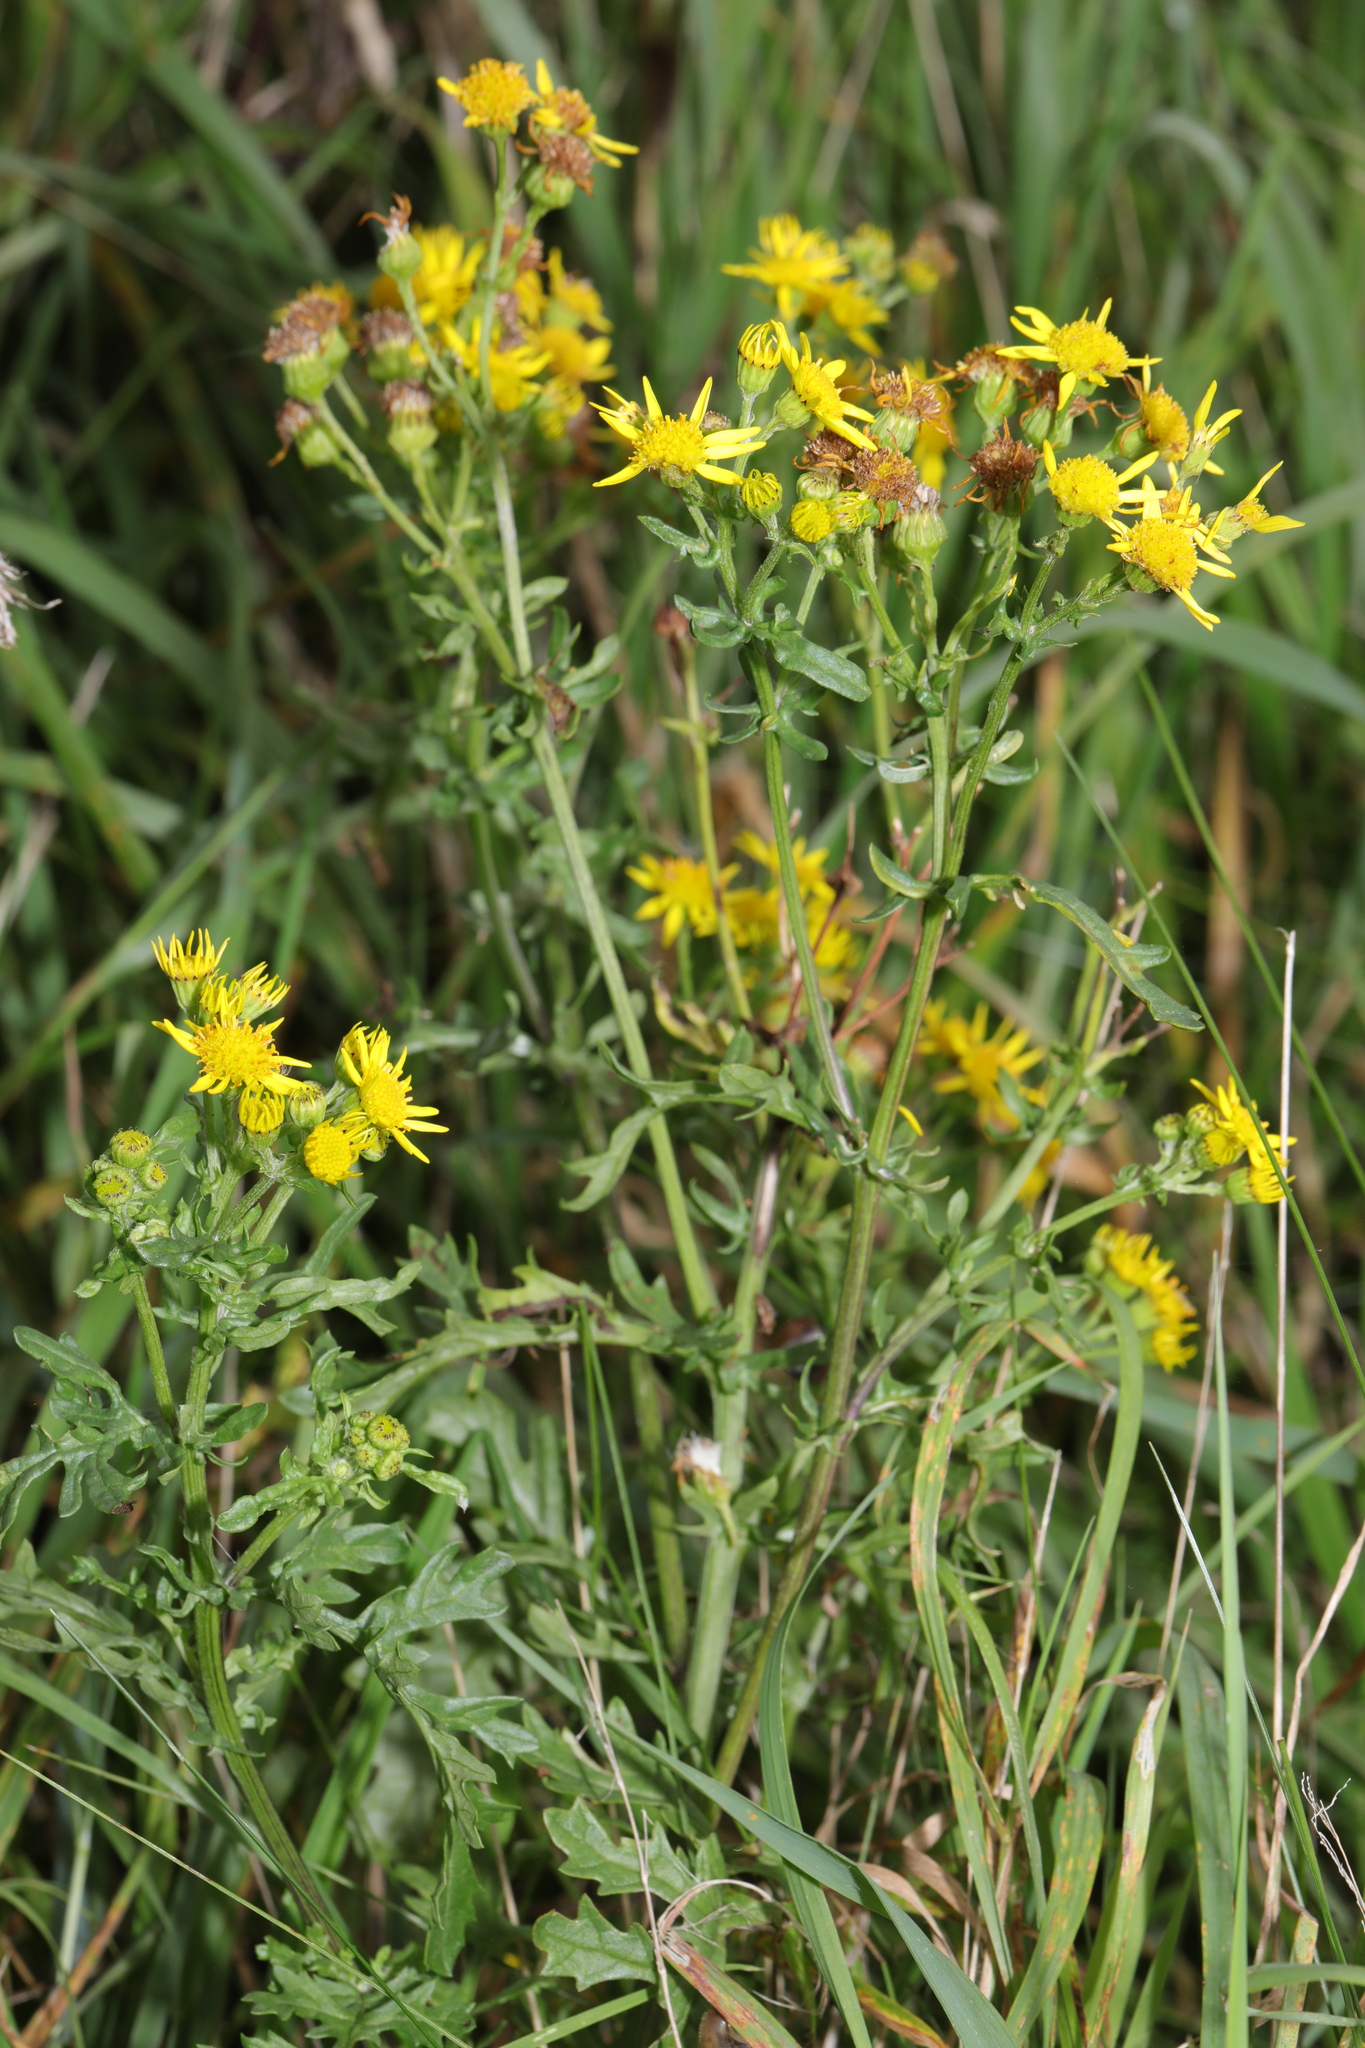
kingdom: Plantae
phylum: Tracheophyta
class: Magnoliopsida
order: Asterales
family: Asteraceae
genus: Jacobaea
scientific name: Jacobaea vulgaris
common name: Stinking willie
